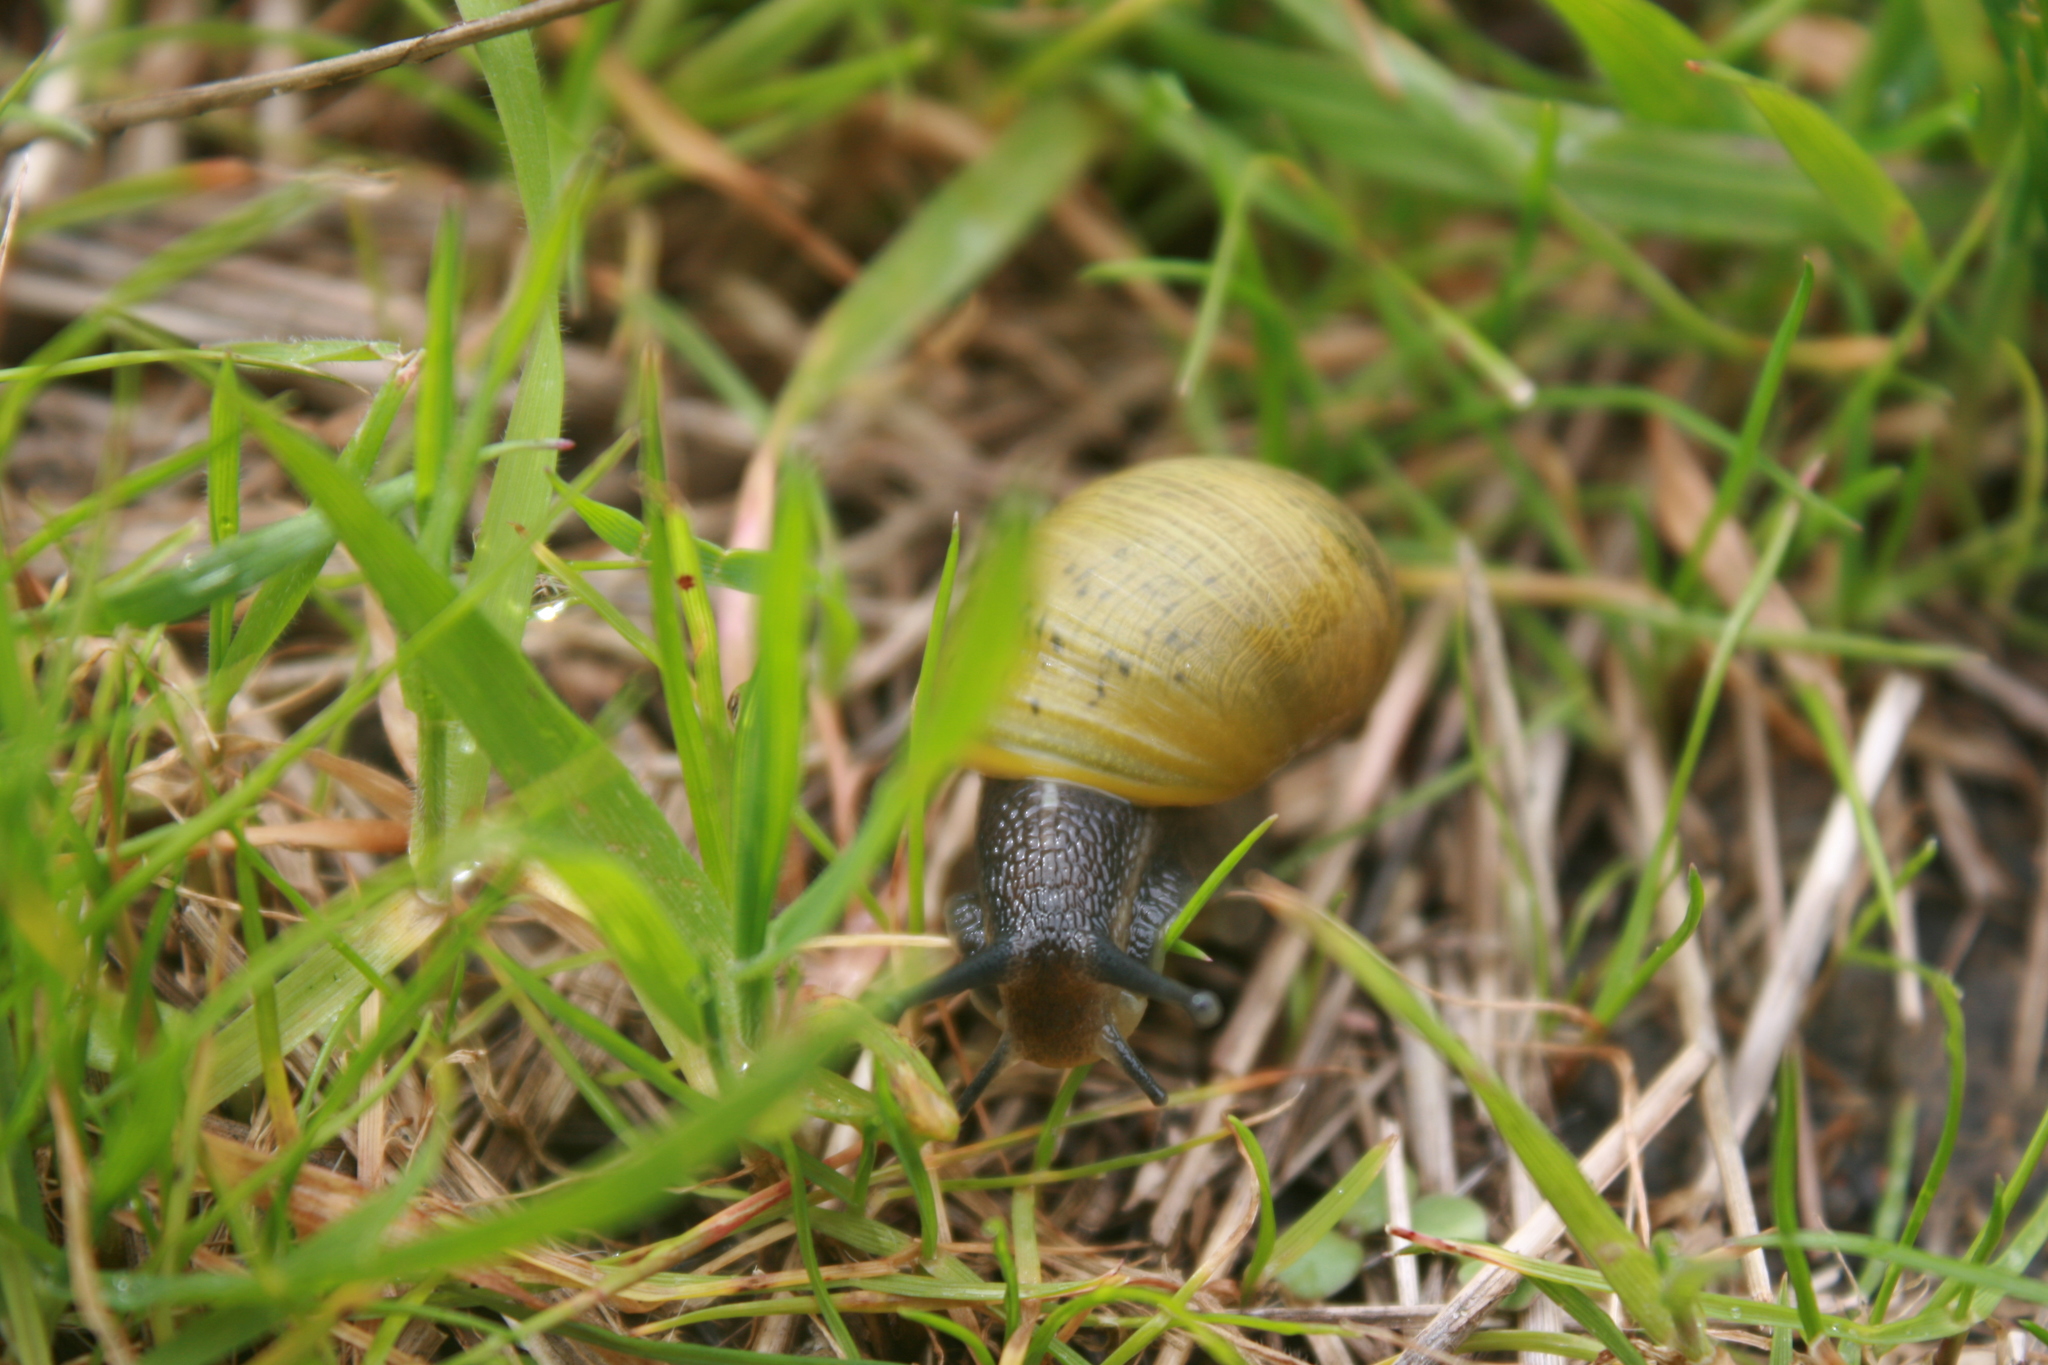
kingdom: Animalia
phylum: Mollusca
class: Gastropoda
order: Stylommatophora
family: Helicidae
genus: Cantareus
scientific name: Cantareus apertus
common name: Green gardensnail
